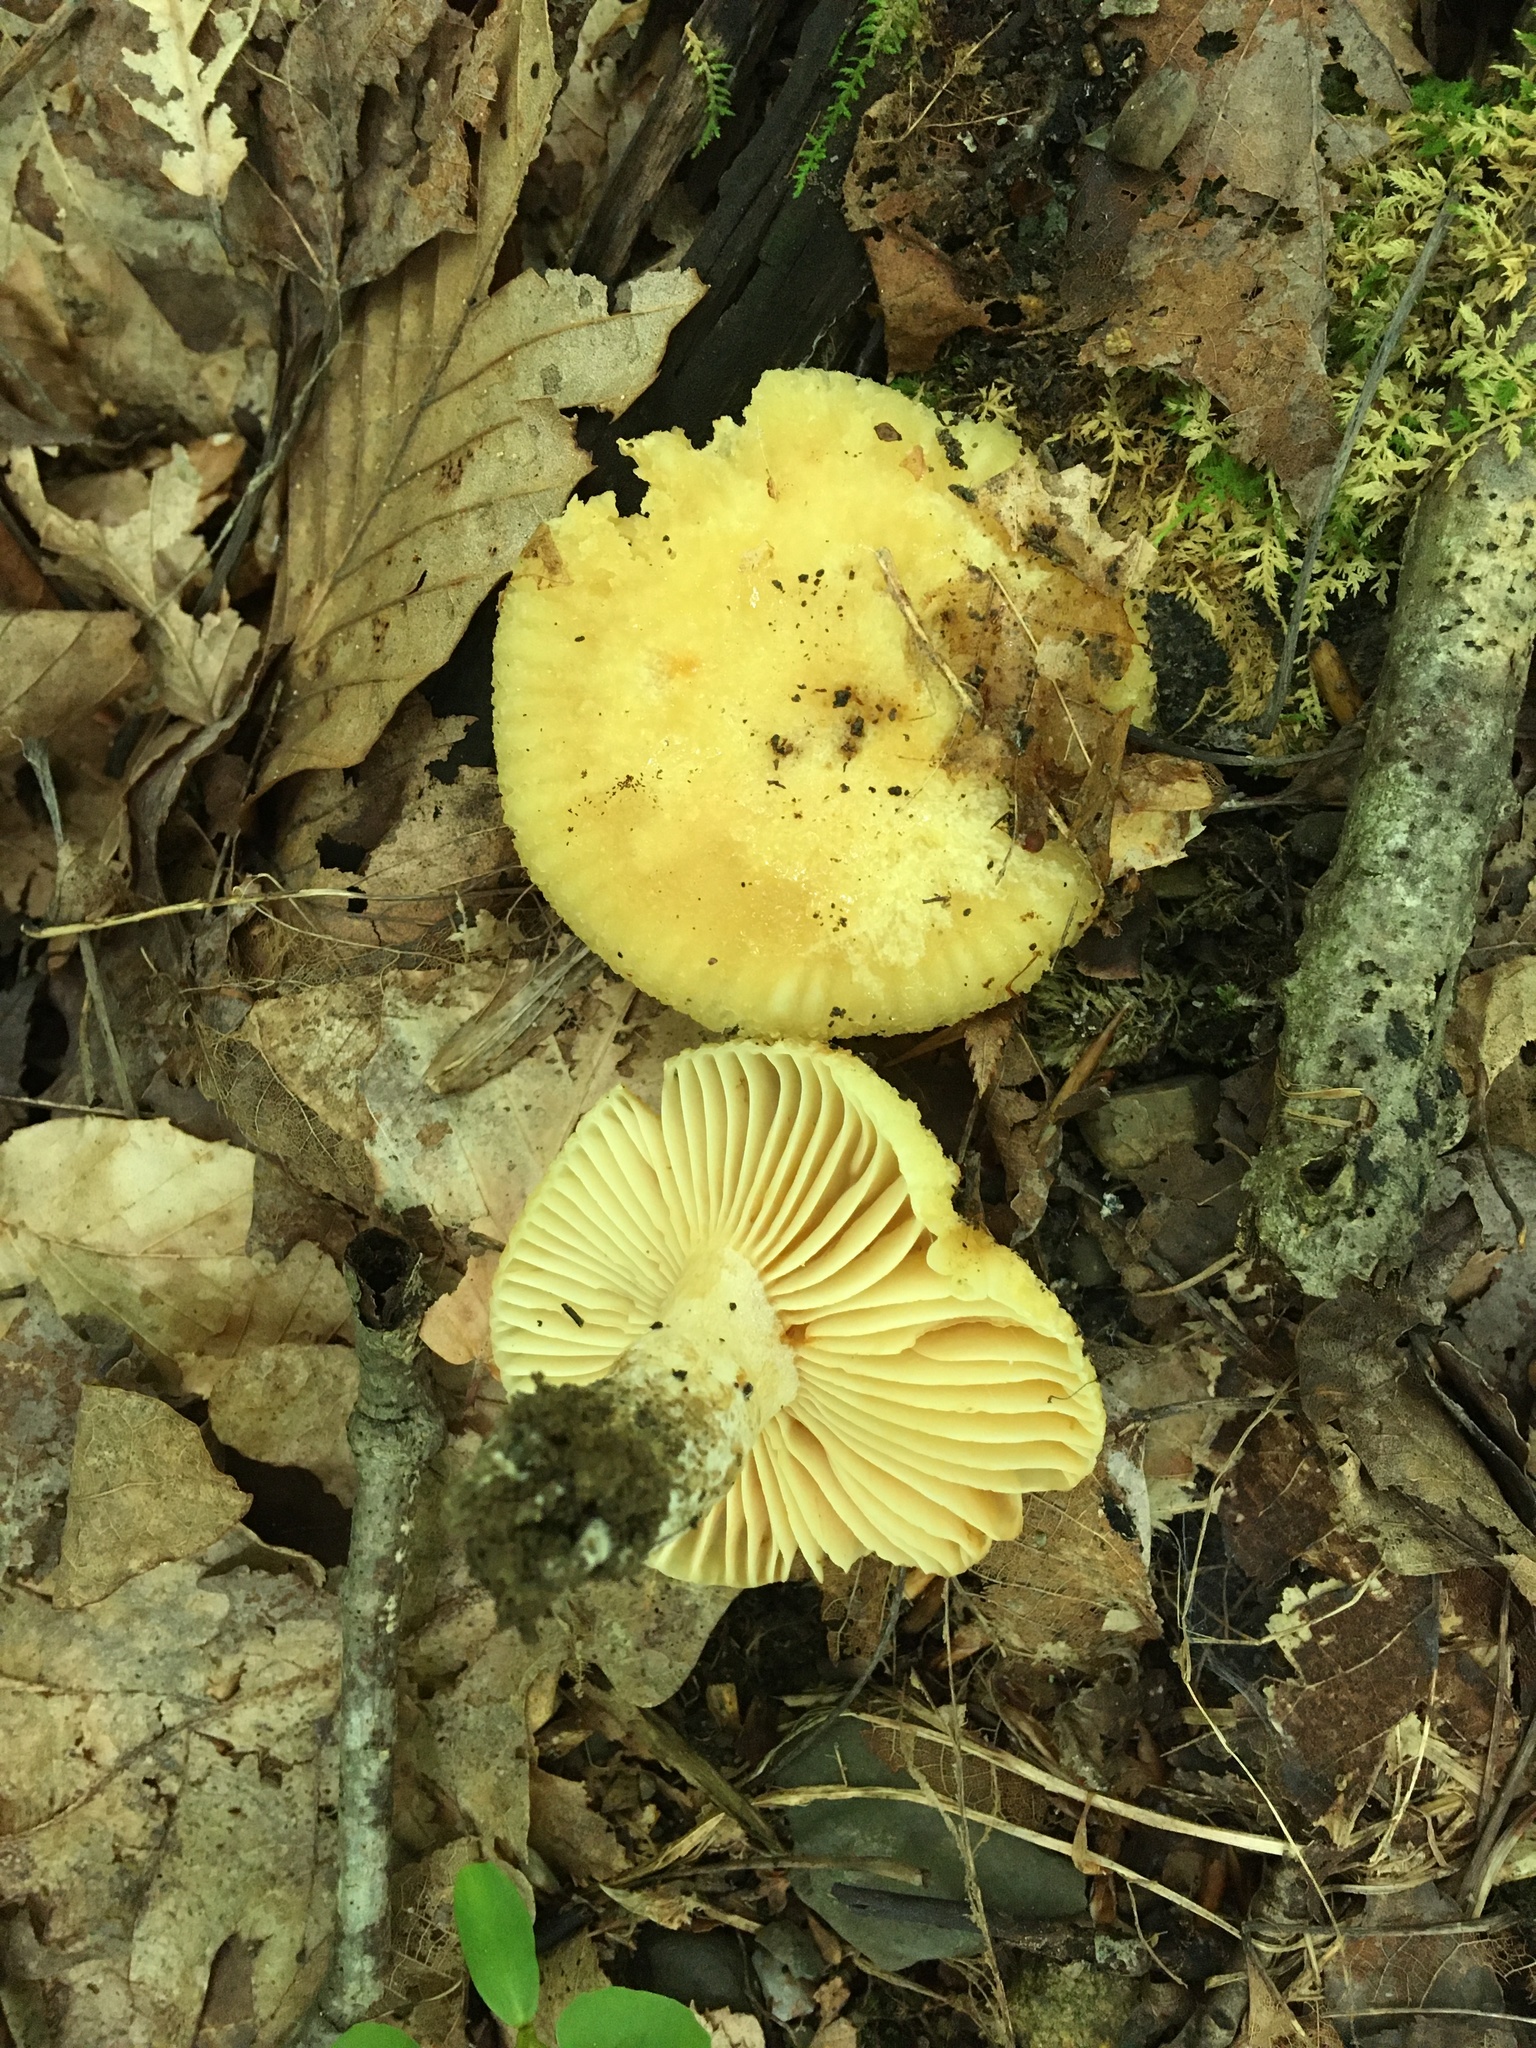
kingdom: Fungi
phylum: Basidiomycota
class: Agaricomycetes
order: Russulales
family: Russulaceae
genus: Russula
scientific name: Russula earlei
